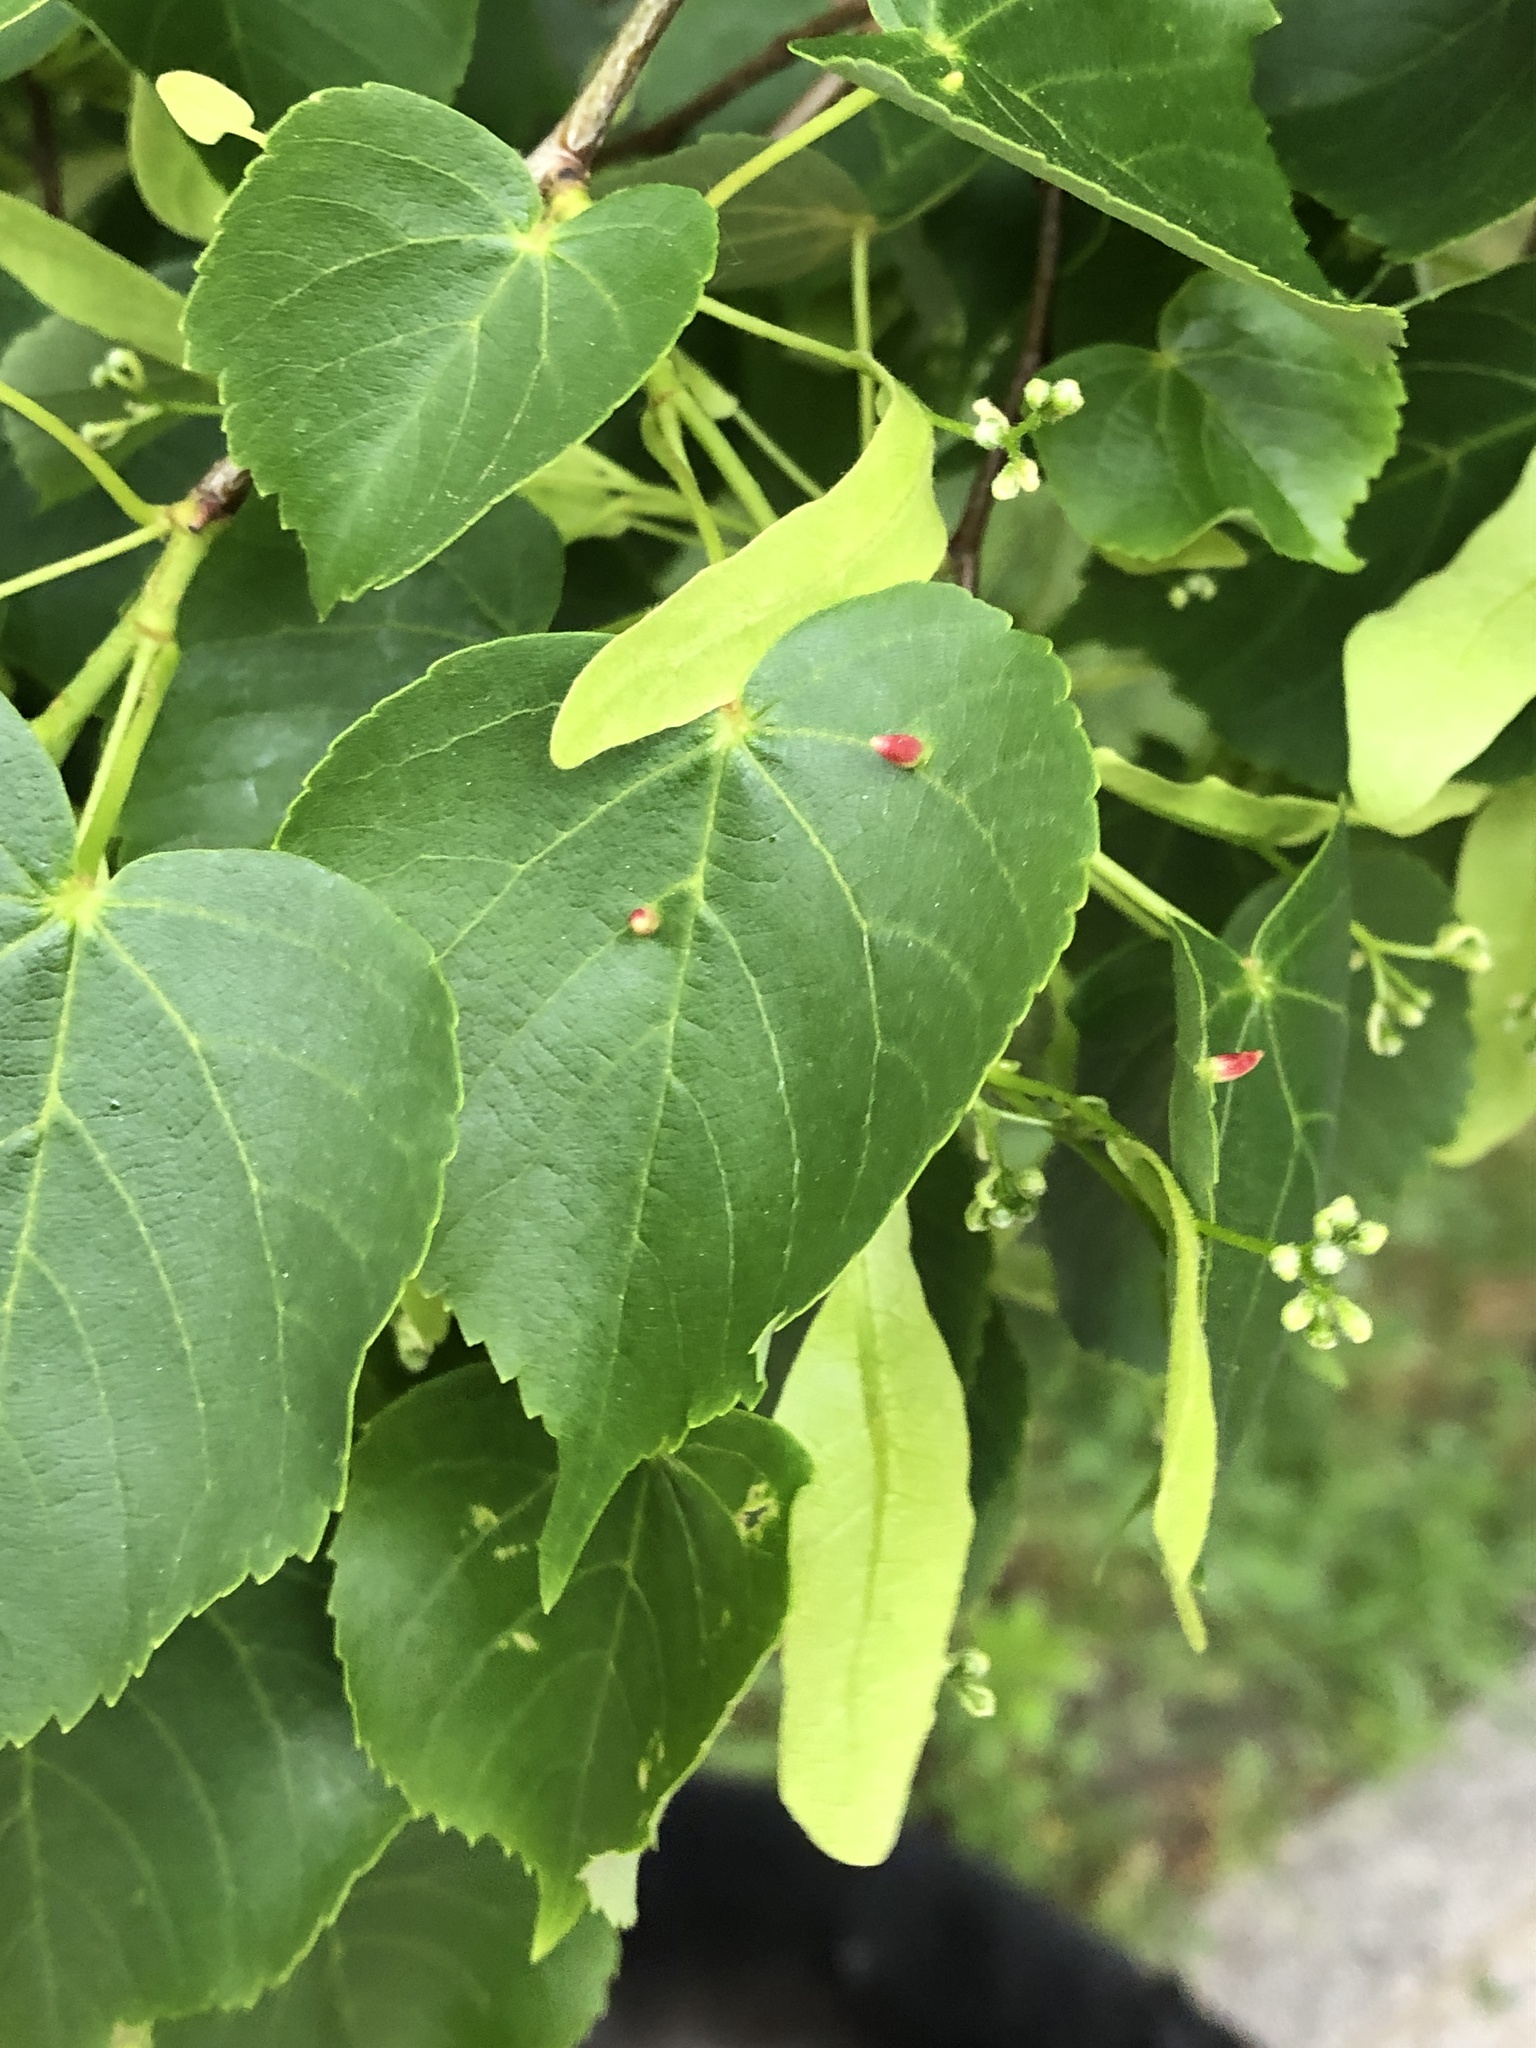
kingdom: Animalia
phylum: Arthropoda
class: Arachnida
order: Trombidiformes
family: Eriophyidae
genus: Eriophyes
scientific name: Eriophyes tiliae
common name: Red nail gall mite
